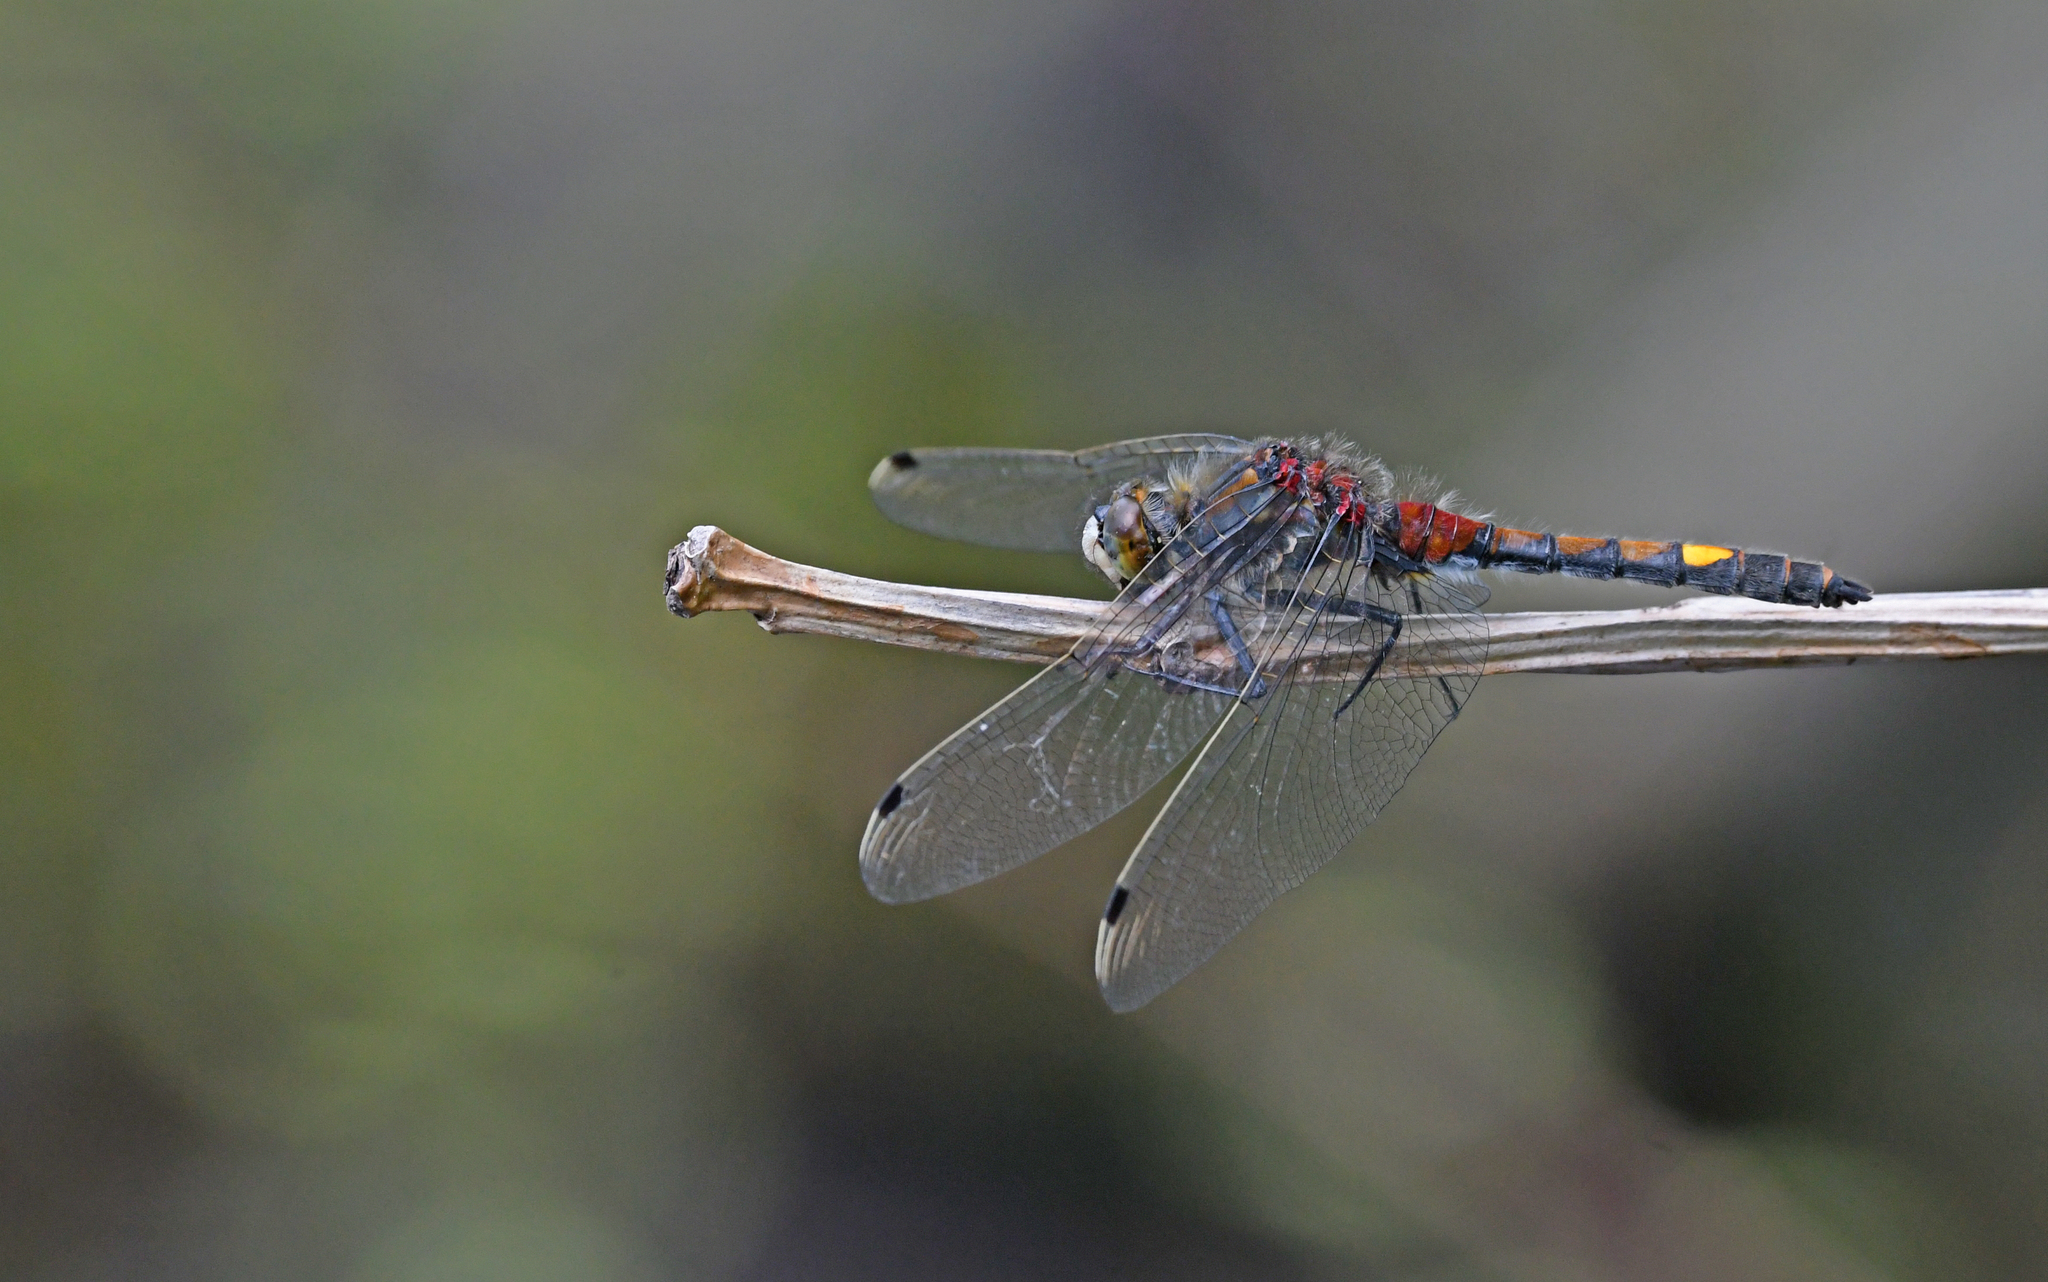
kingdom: Animalia
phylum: Arthropoda
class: Insecta
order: Odonata
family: Libellulidae
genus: Leucorrhinia
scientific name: Leucorrhinia pectoralis
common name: Yellow-spotted whiteface
